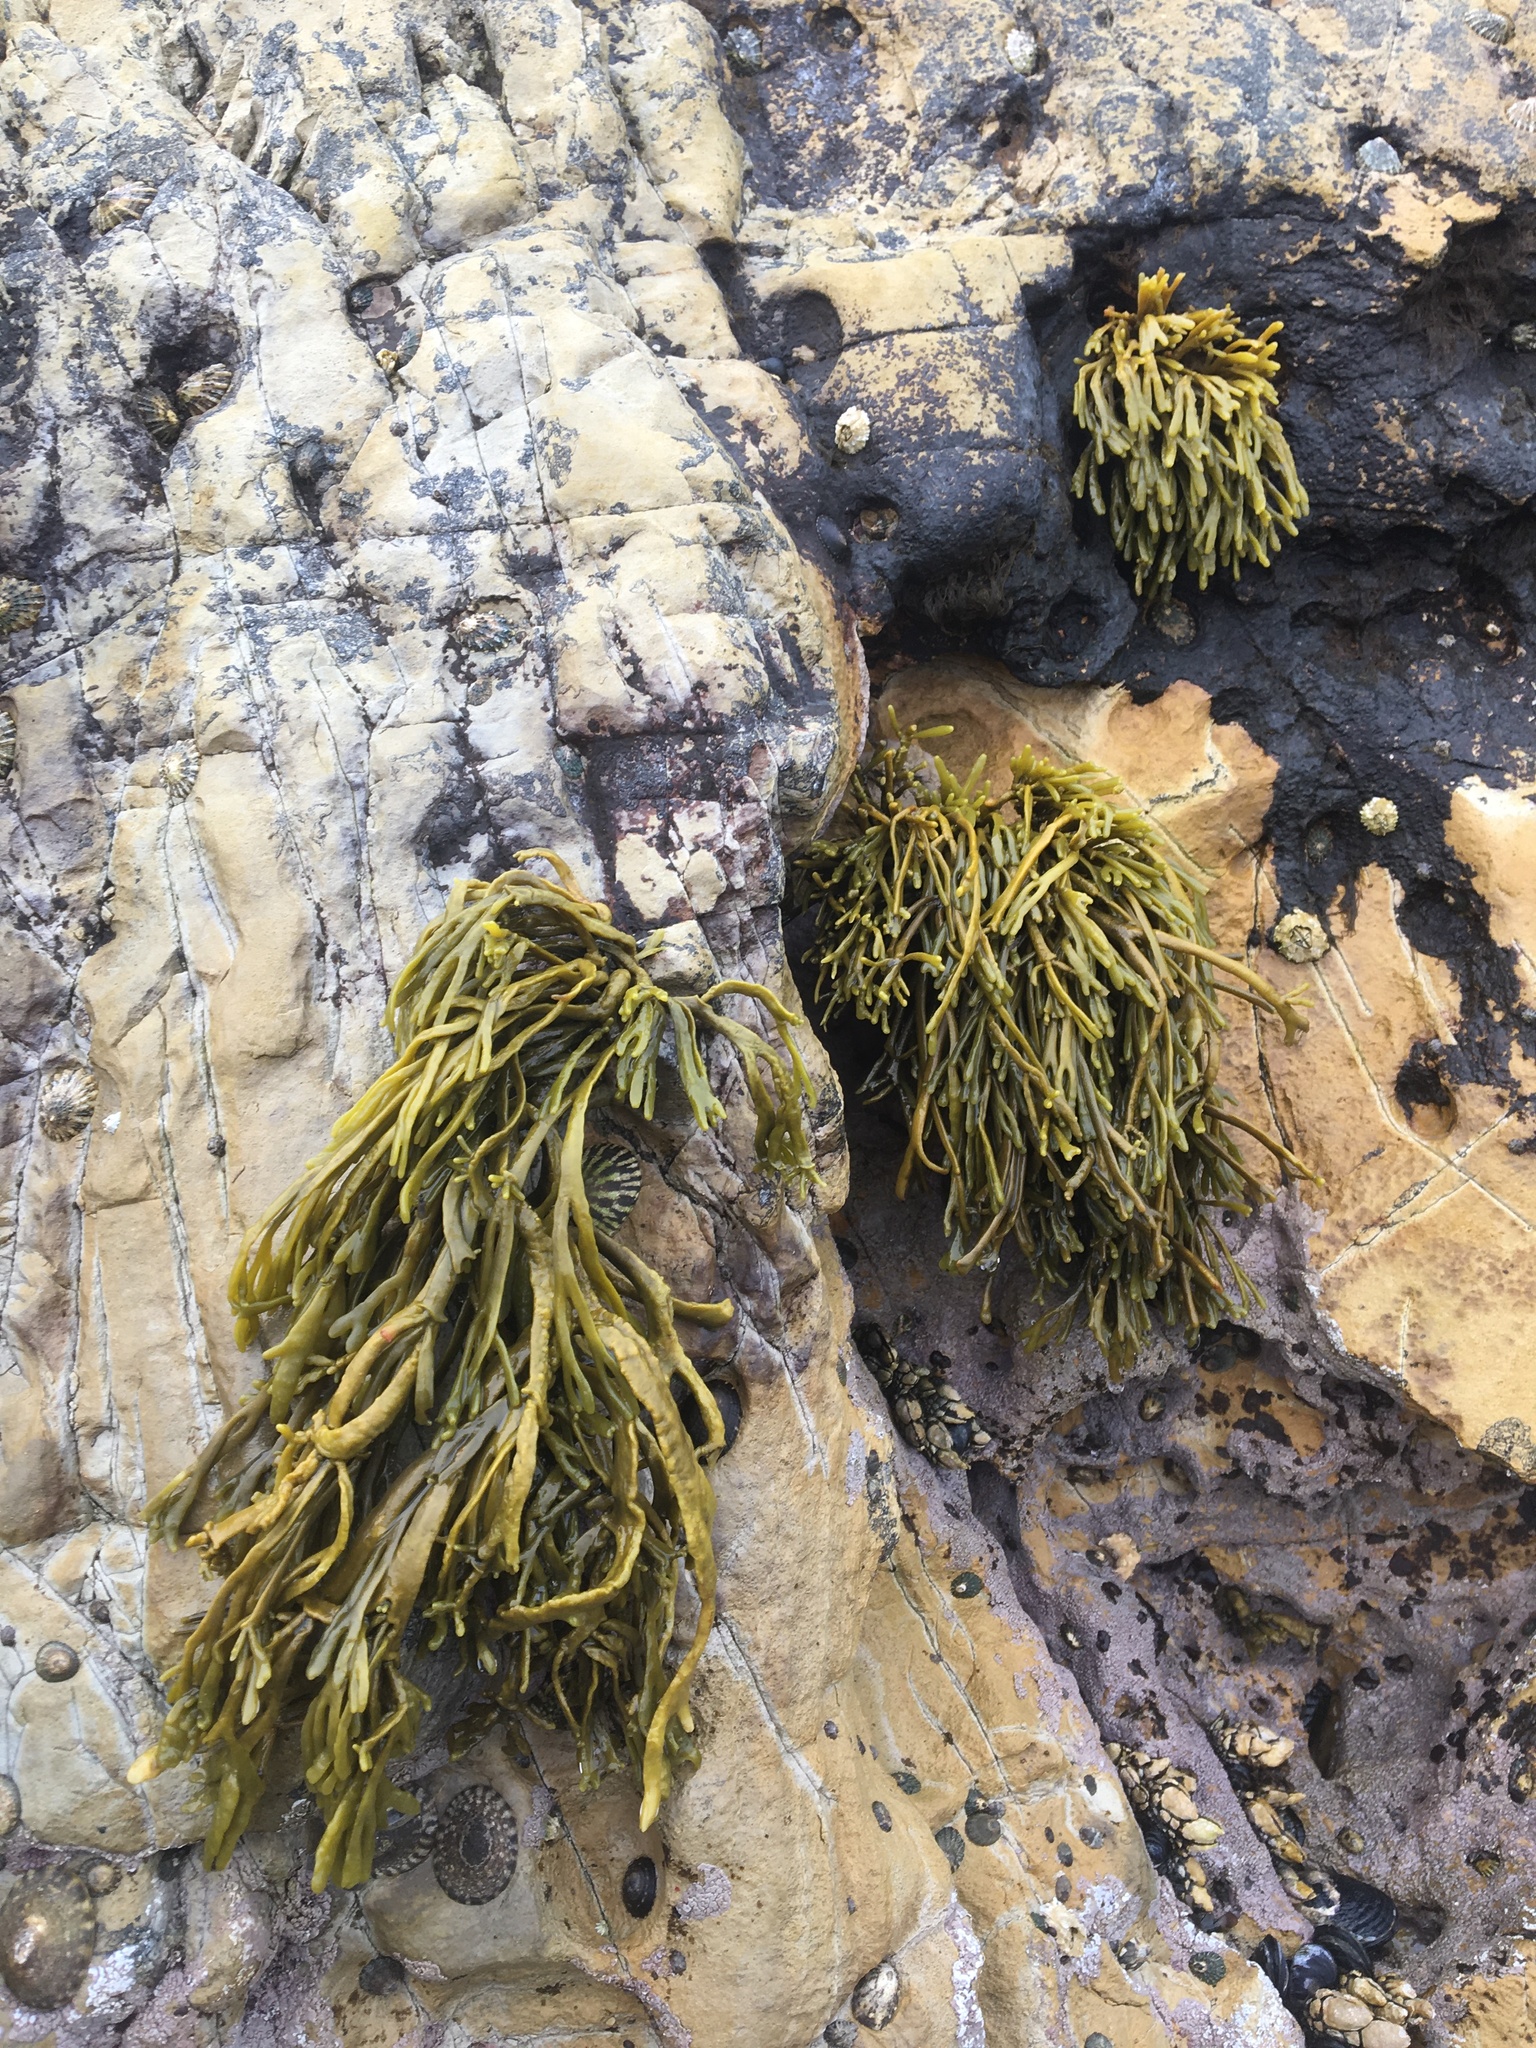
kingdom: Chromista
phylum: Ochrophyta
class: Phaeophyceae
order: Fucales
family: Fucaceae
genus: Silvetia
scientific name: Silvetia
